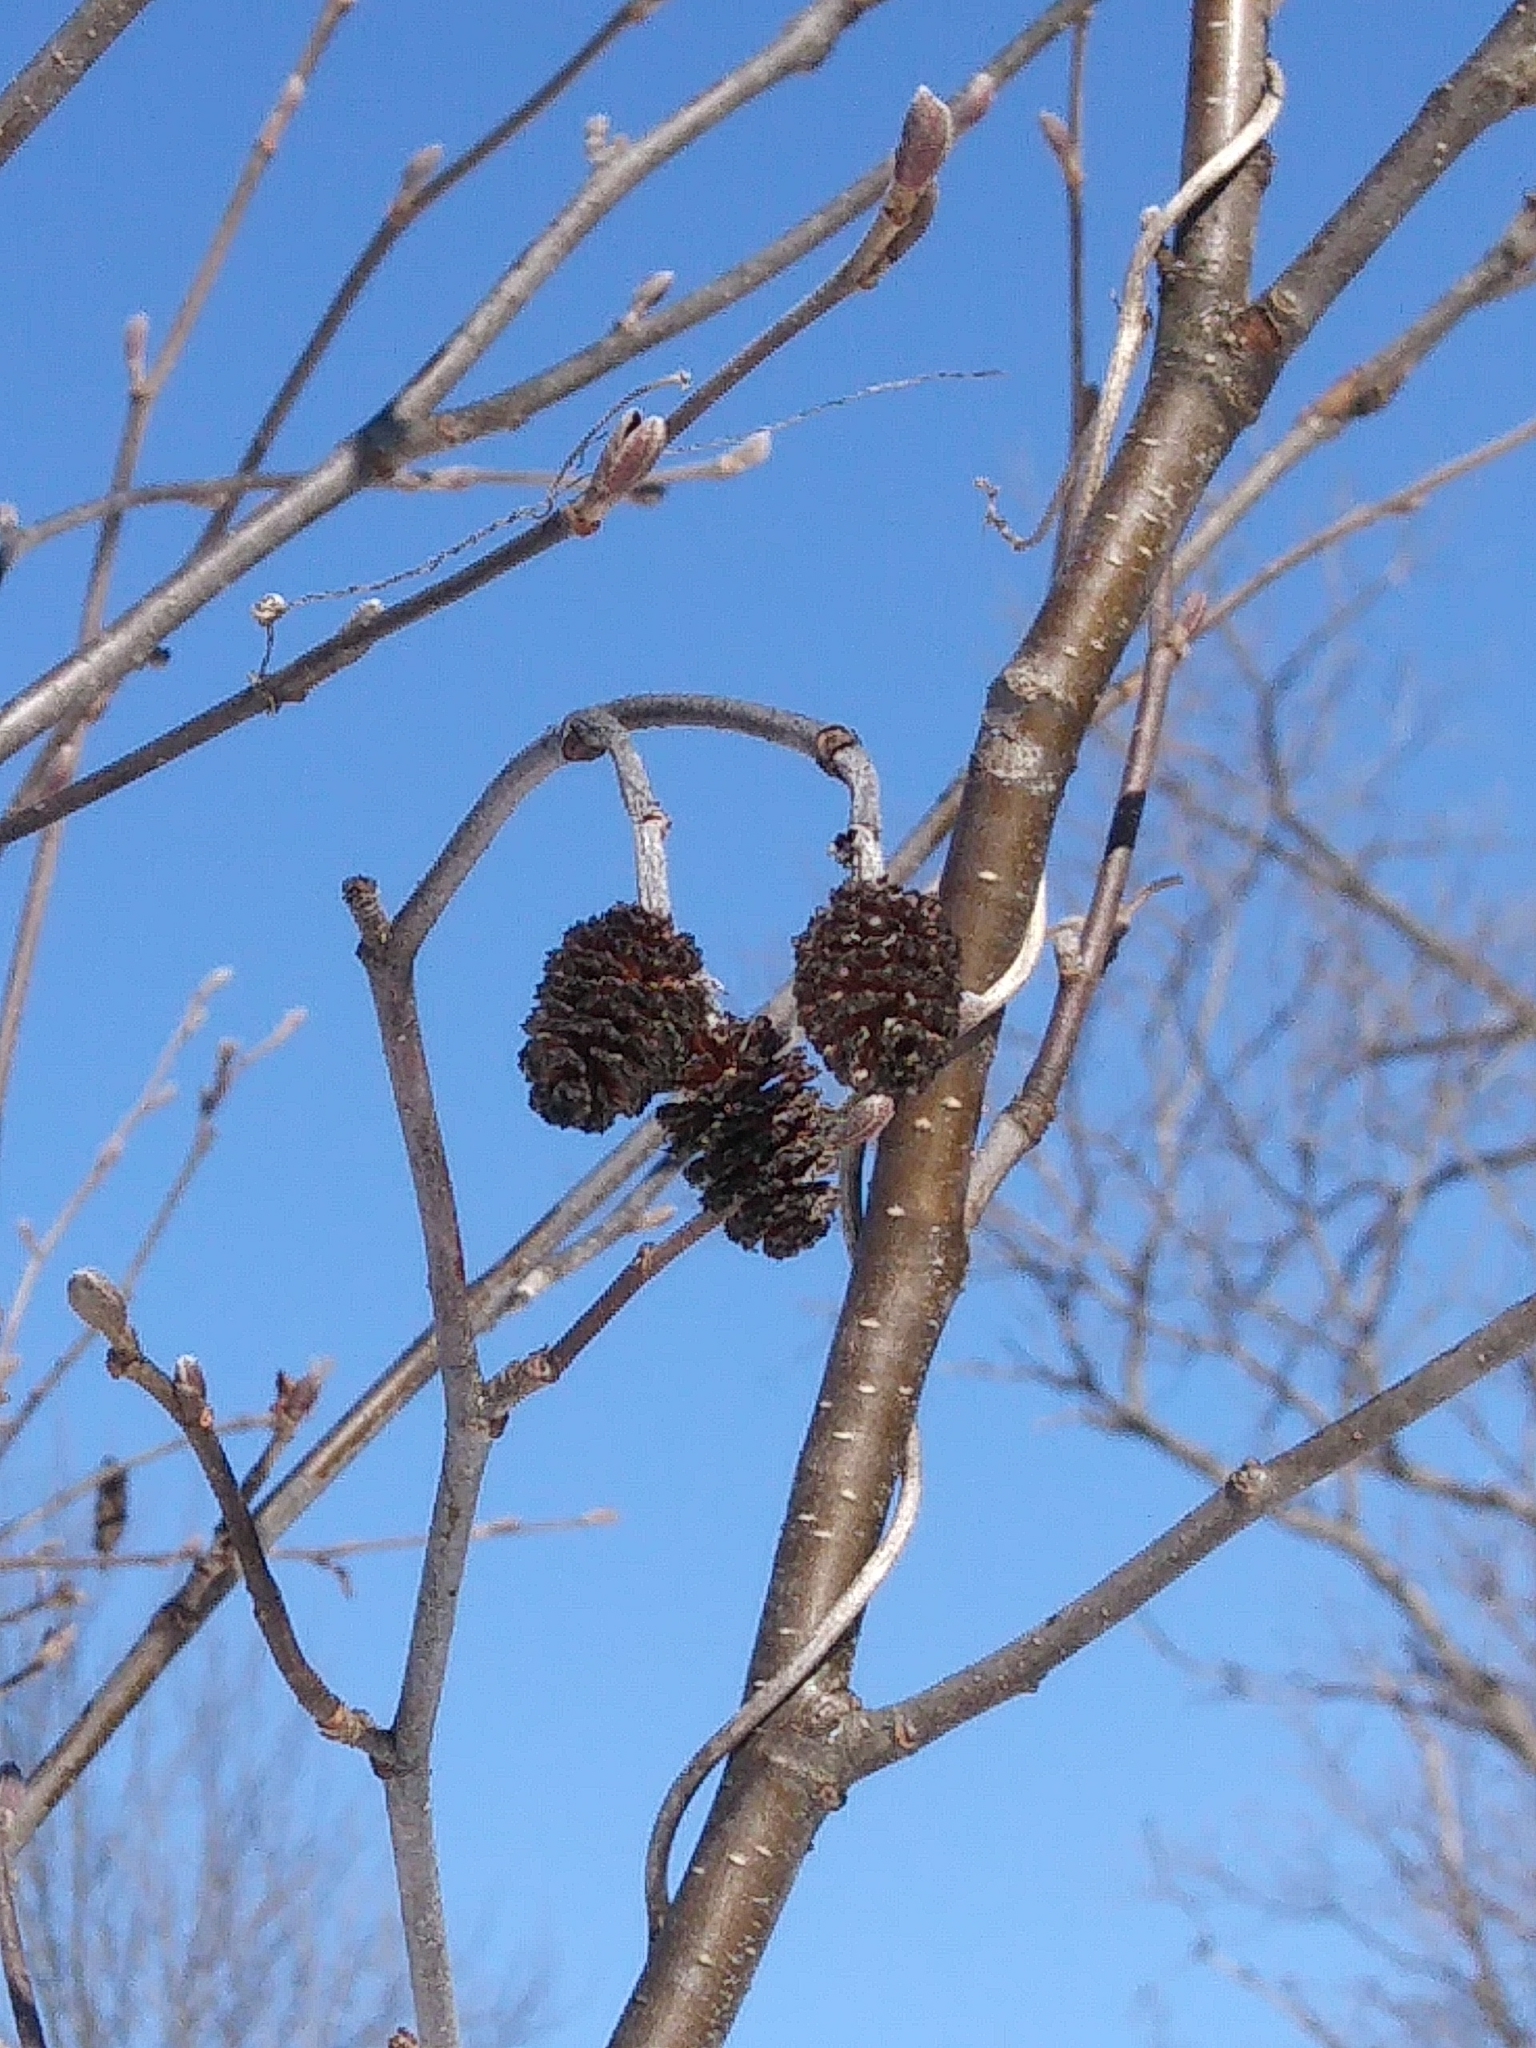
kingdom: Plantae
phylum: Tracheophyta
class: Magnoliopsida
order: Fagales
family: Betulaceae
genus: Alnus
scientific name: Alnus incana
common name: Grey alder
